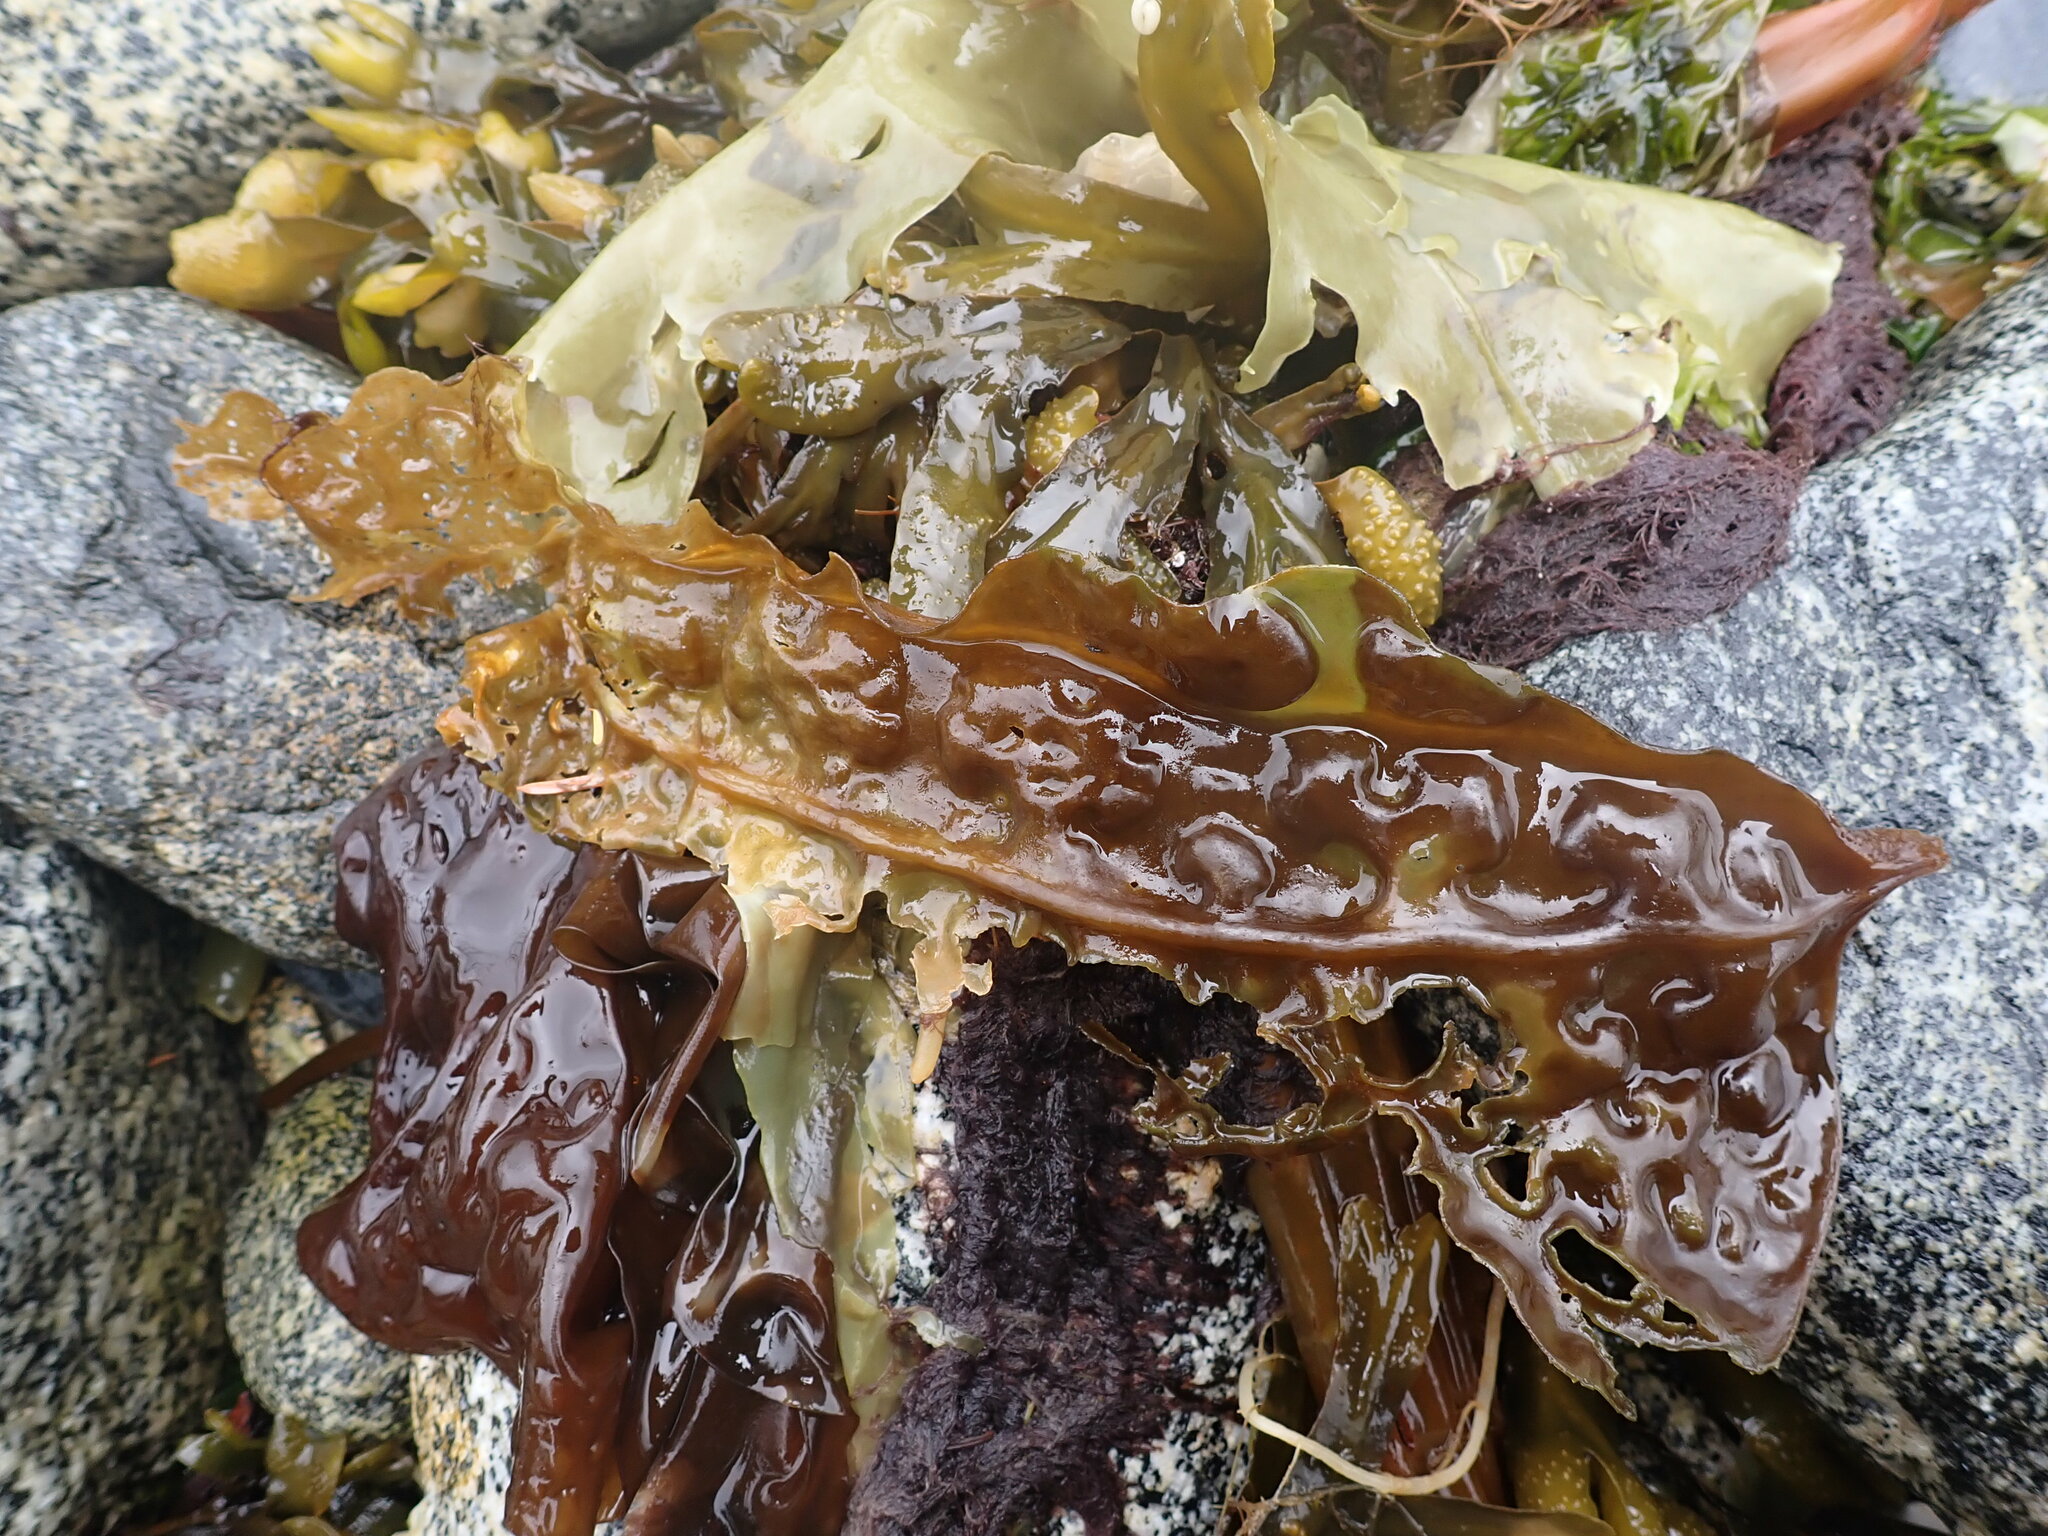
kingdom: Chromista
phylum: Ochrophyta
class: Phaeophyceae
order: Laminariales
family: Costariaceae
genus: Costaria
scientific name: Costaria costata
